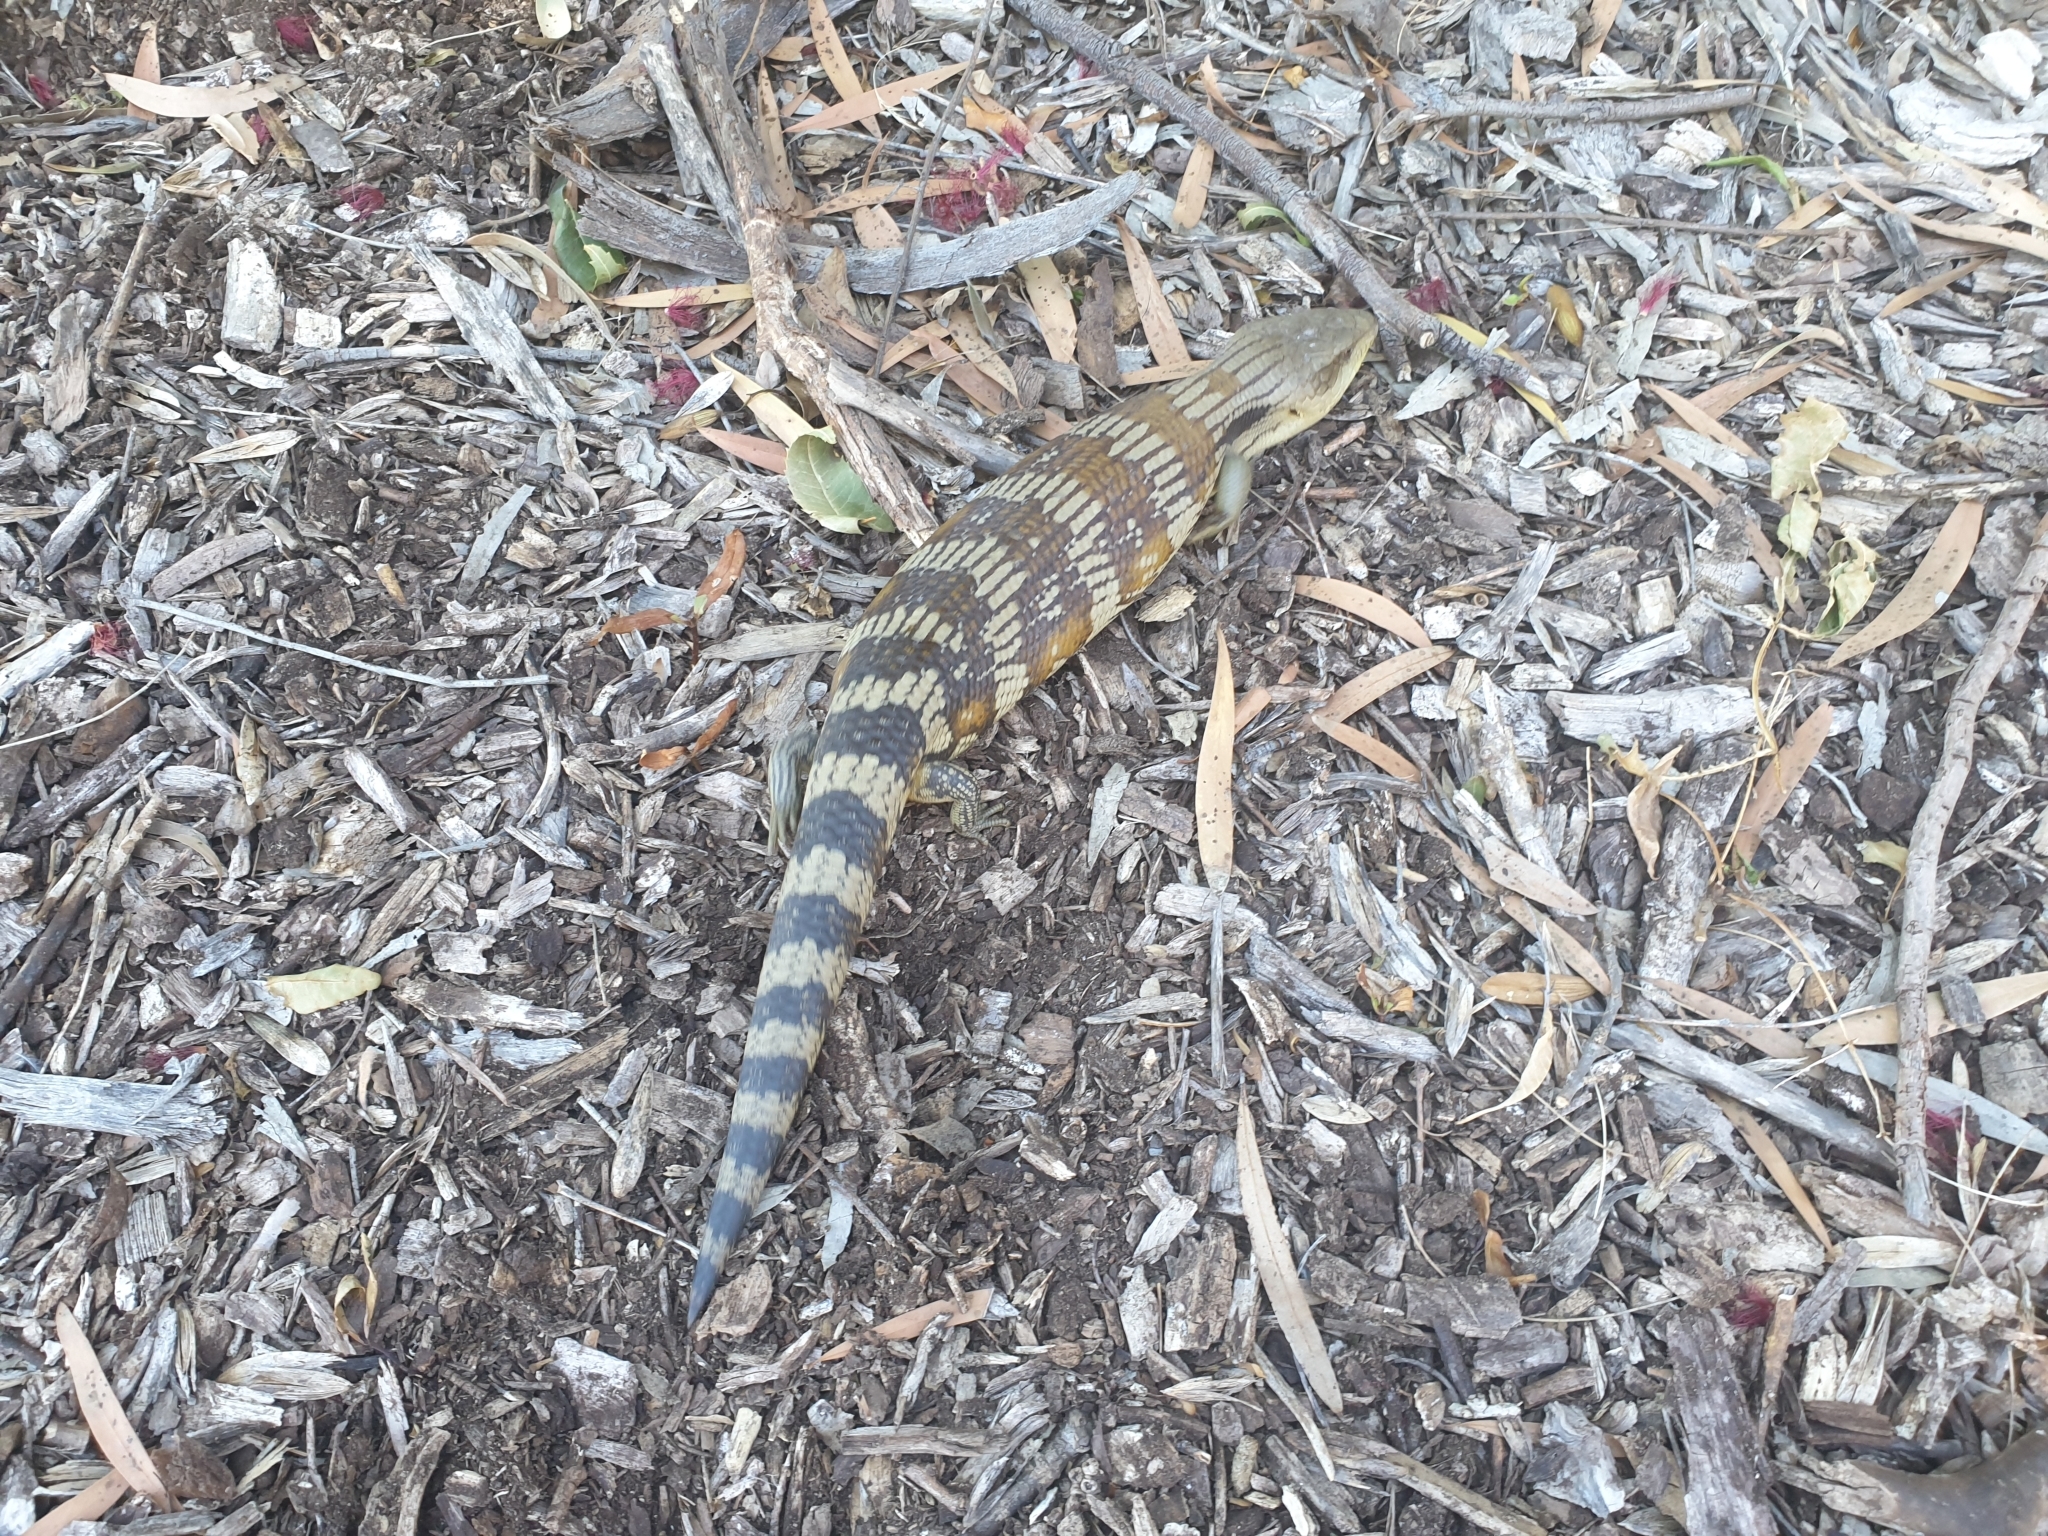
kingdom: Animalia
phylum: Chordata
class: Squamata
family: Scincidae
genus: Tiliqua
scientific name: Tiliqua scincoides
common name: Common bluetongue
